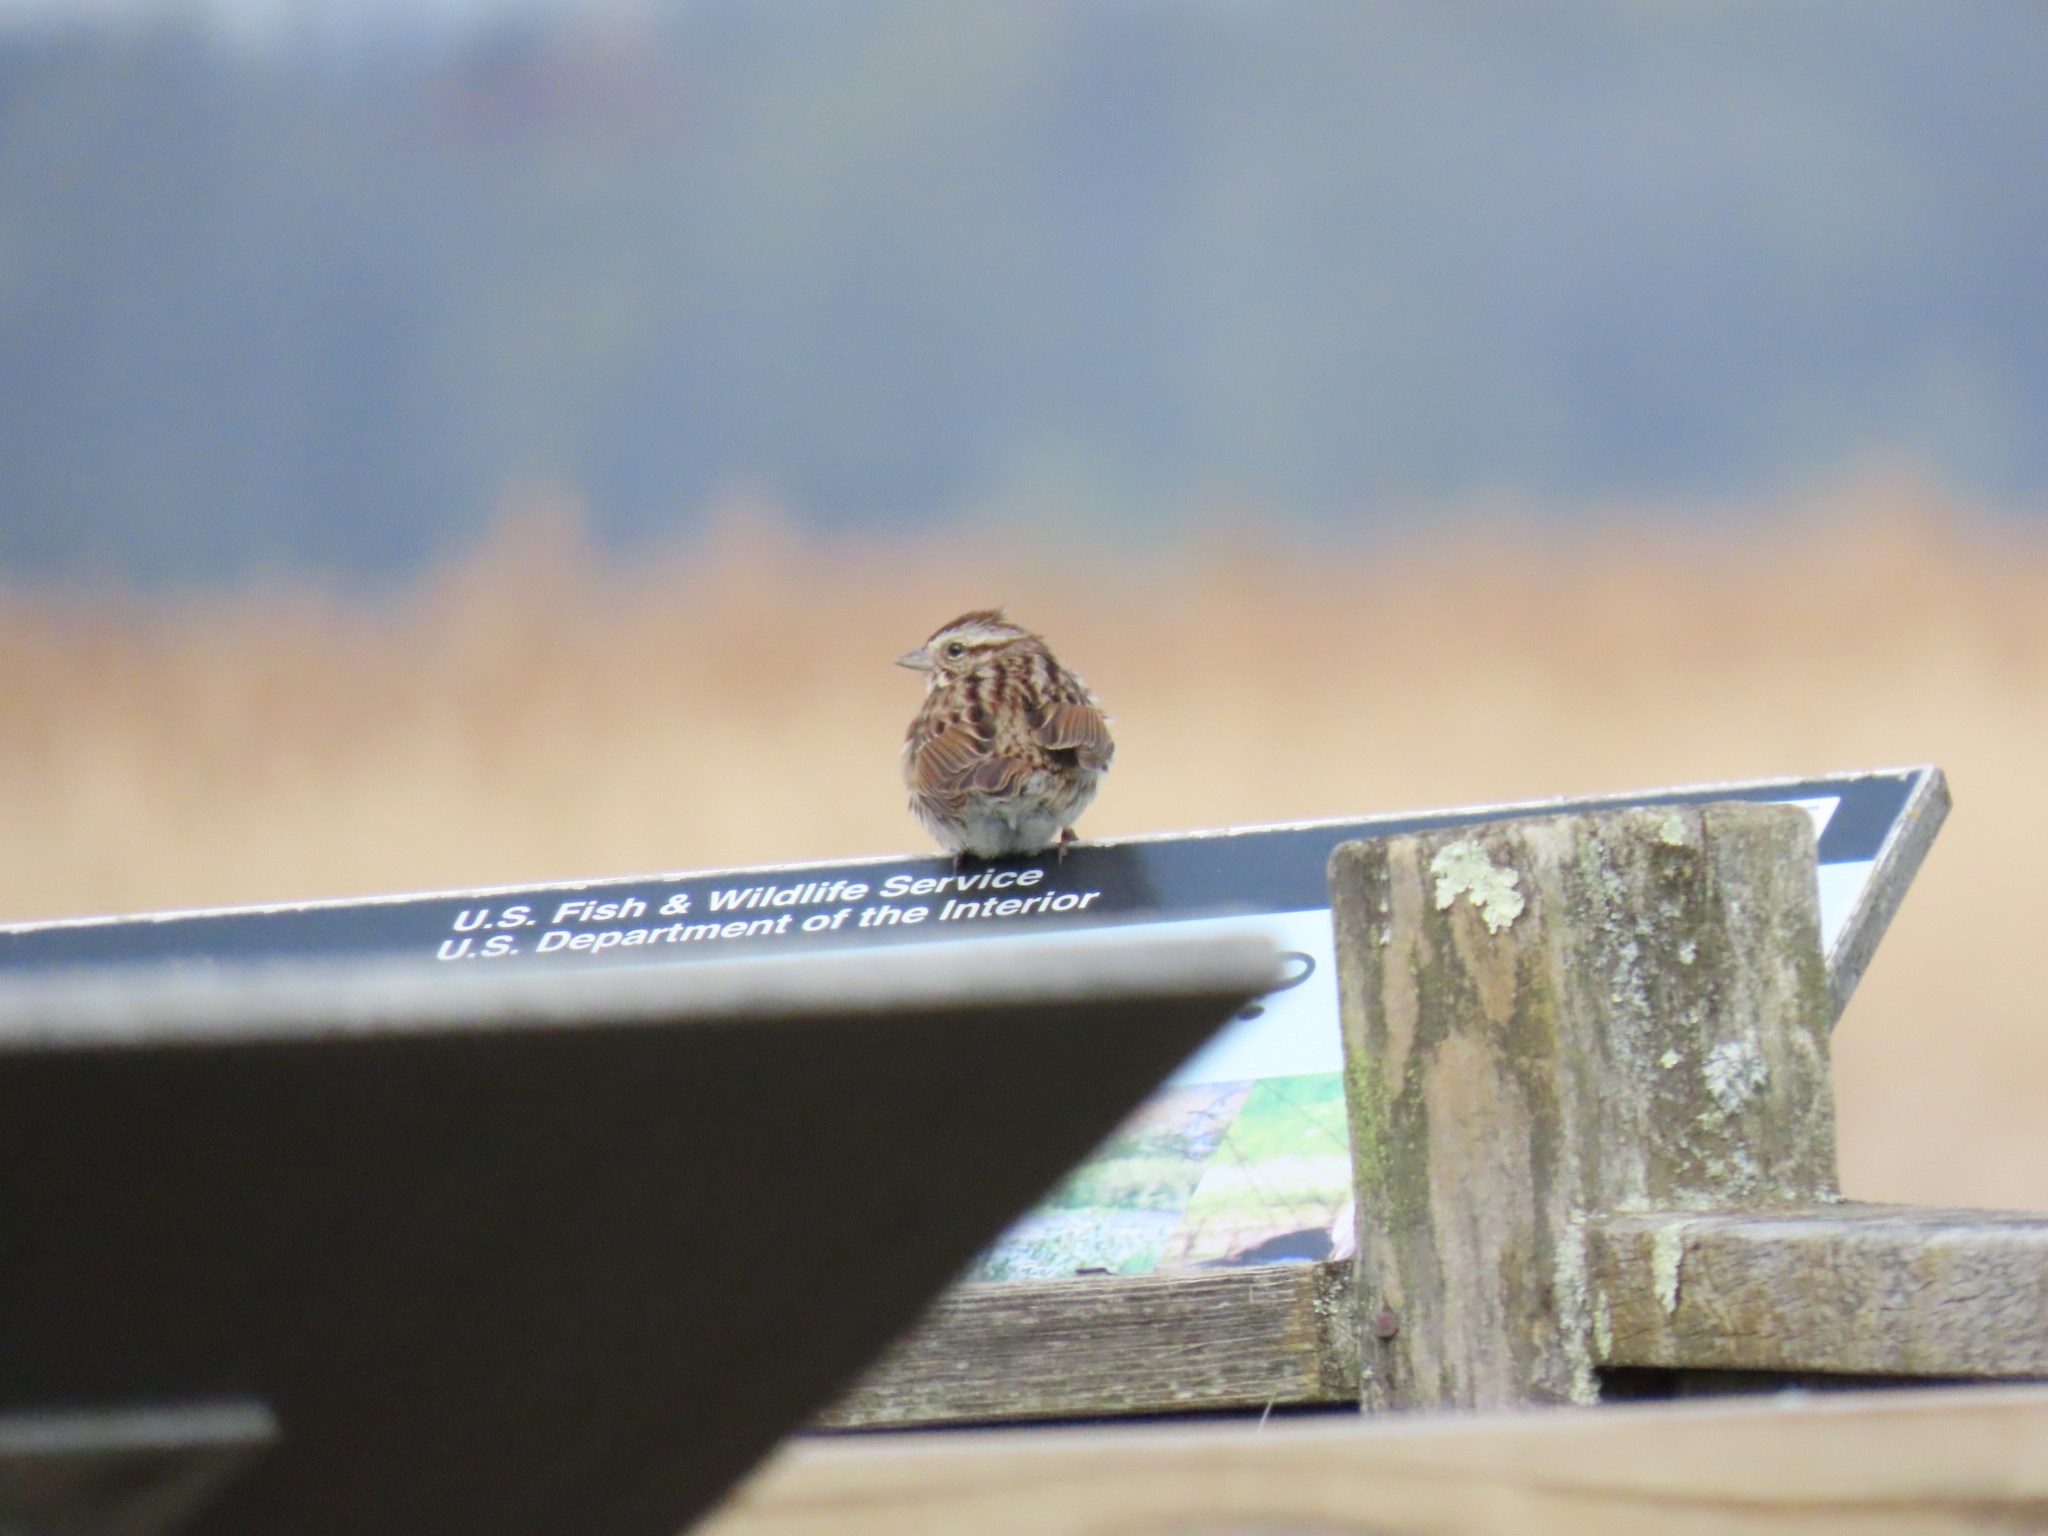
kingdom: Animalia
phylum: Chordata
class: Aves
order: Passeriformes
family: Passerellidae
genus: Melospiza
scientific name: Melospiza melodia
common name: Song sparrow
